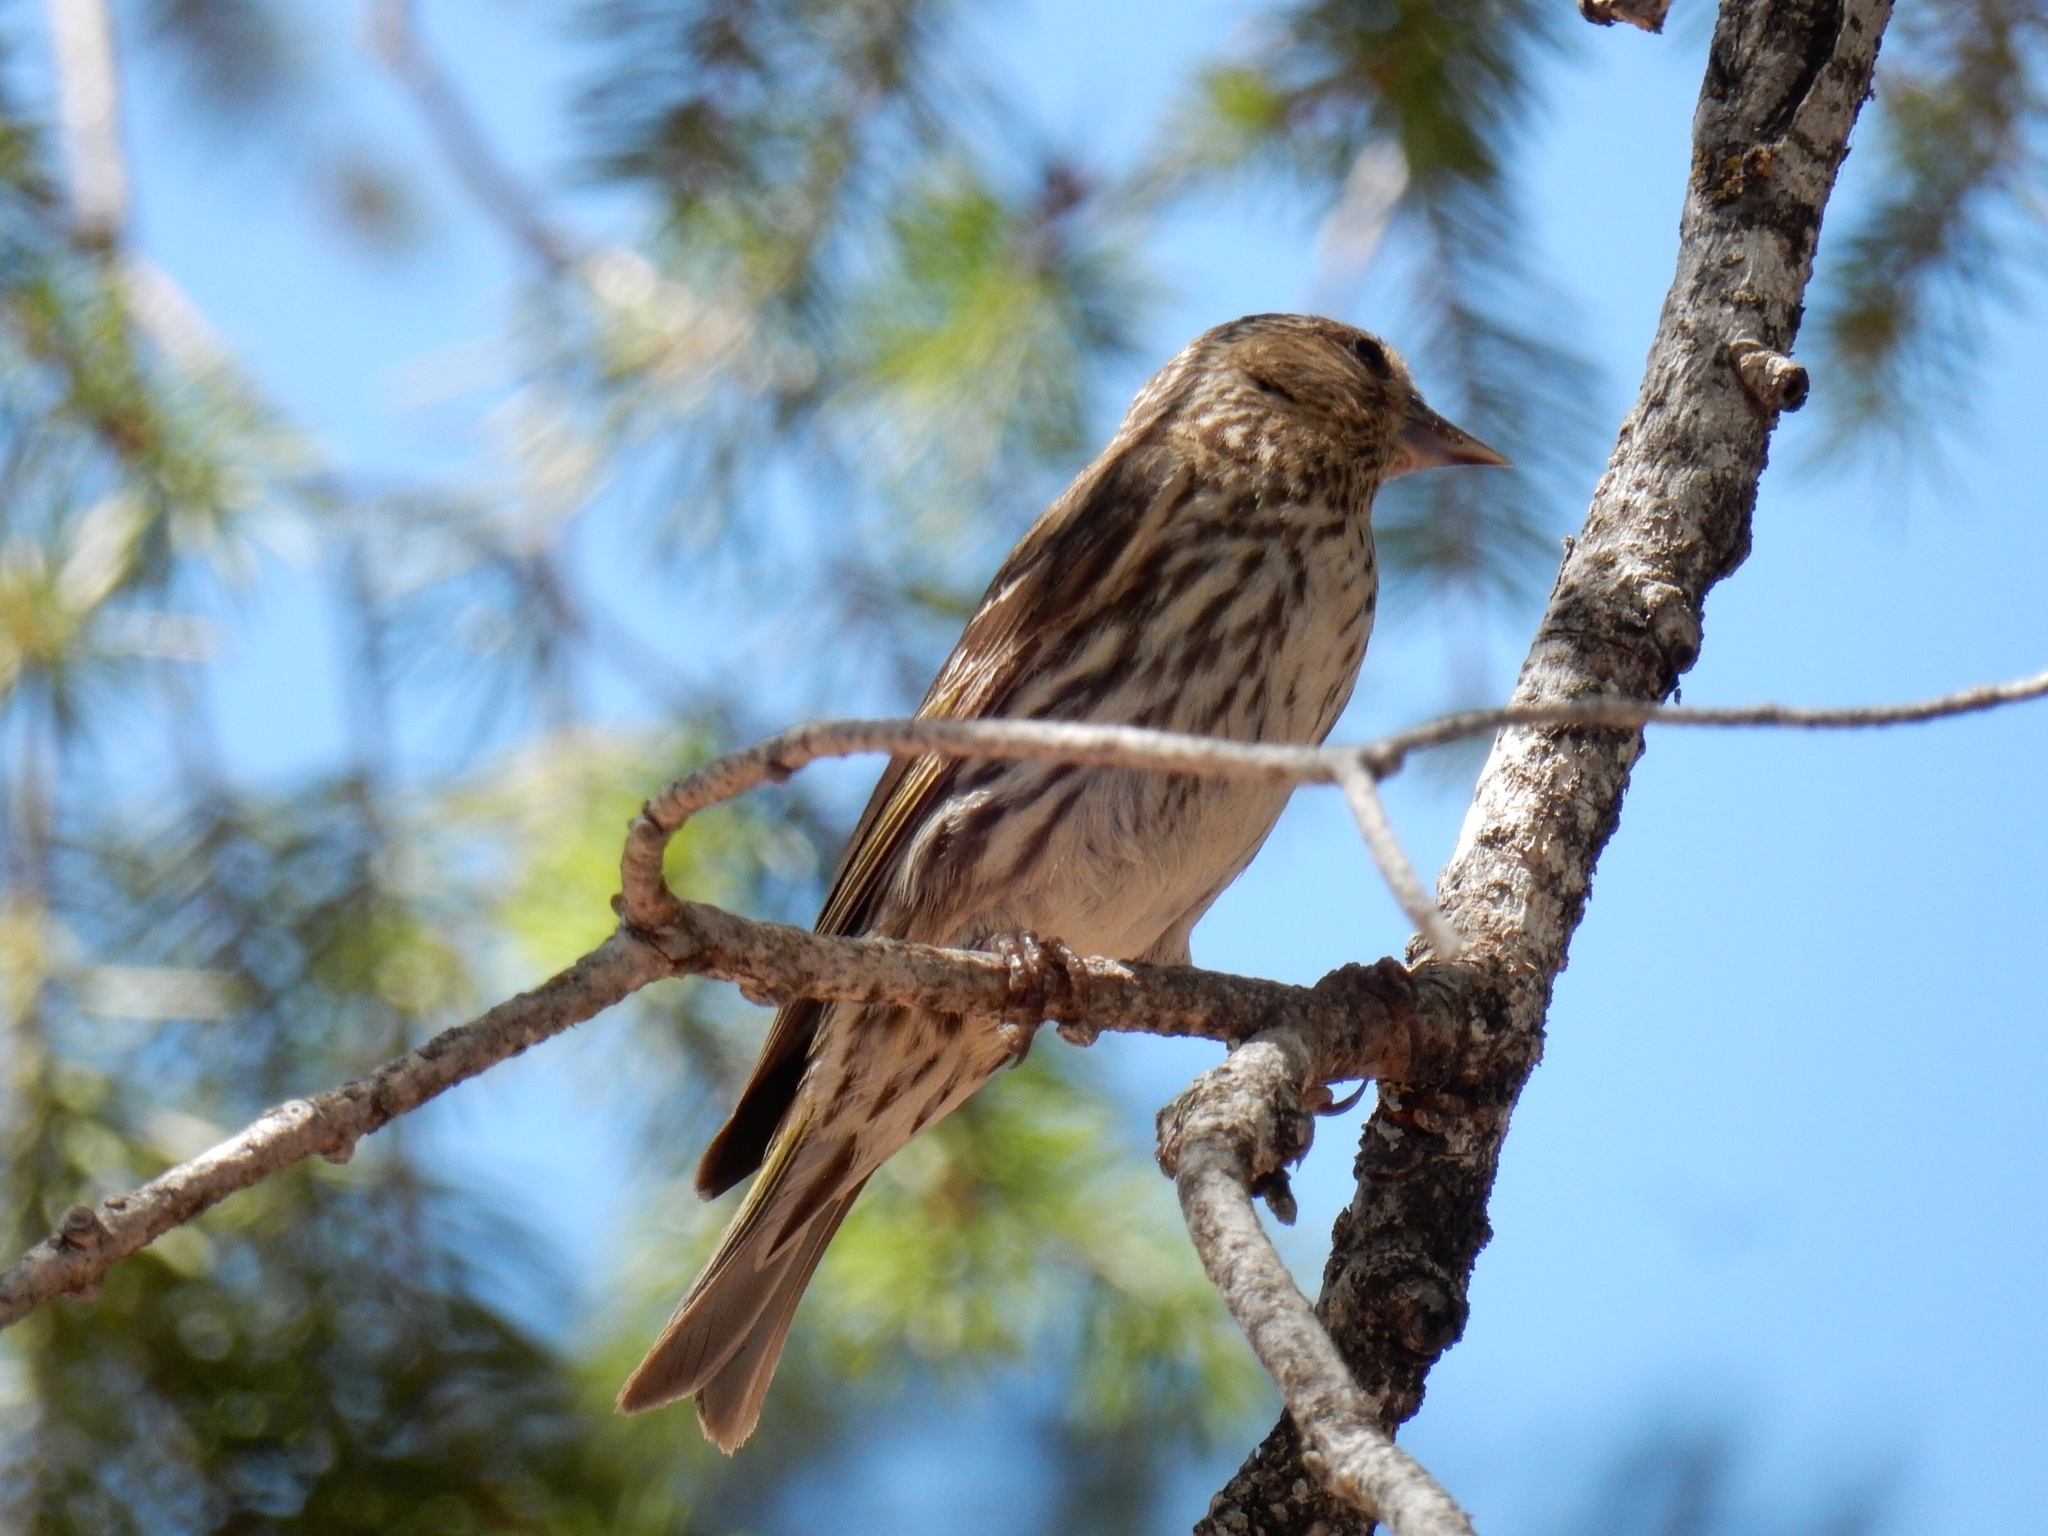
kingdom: Animalia
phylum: Chordata
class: Aves
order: Passeriformes
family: Fringillidae
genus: Spinus
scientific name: Spinus pinus
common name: Pine siskin
